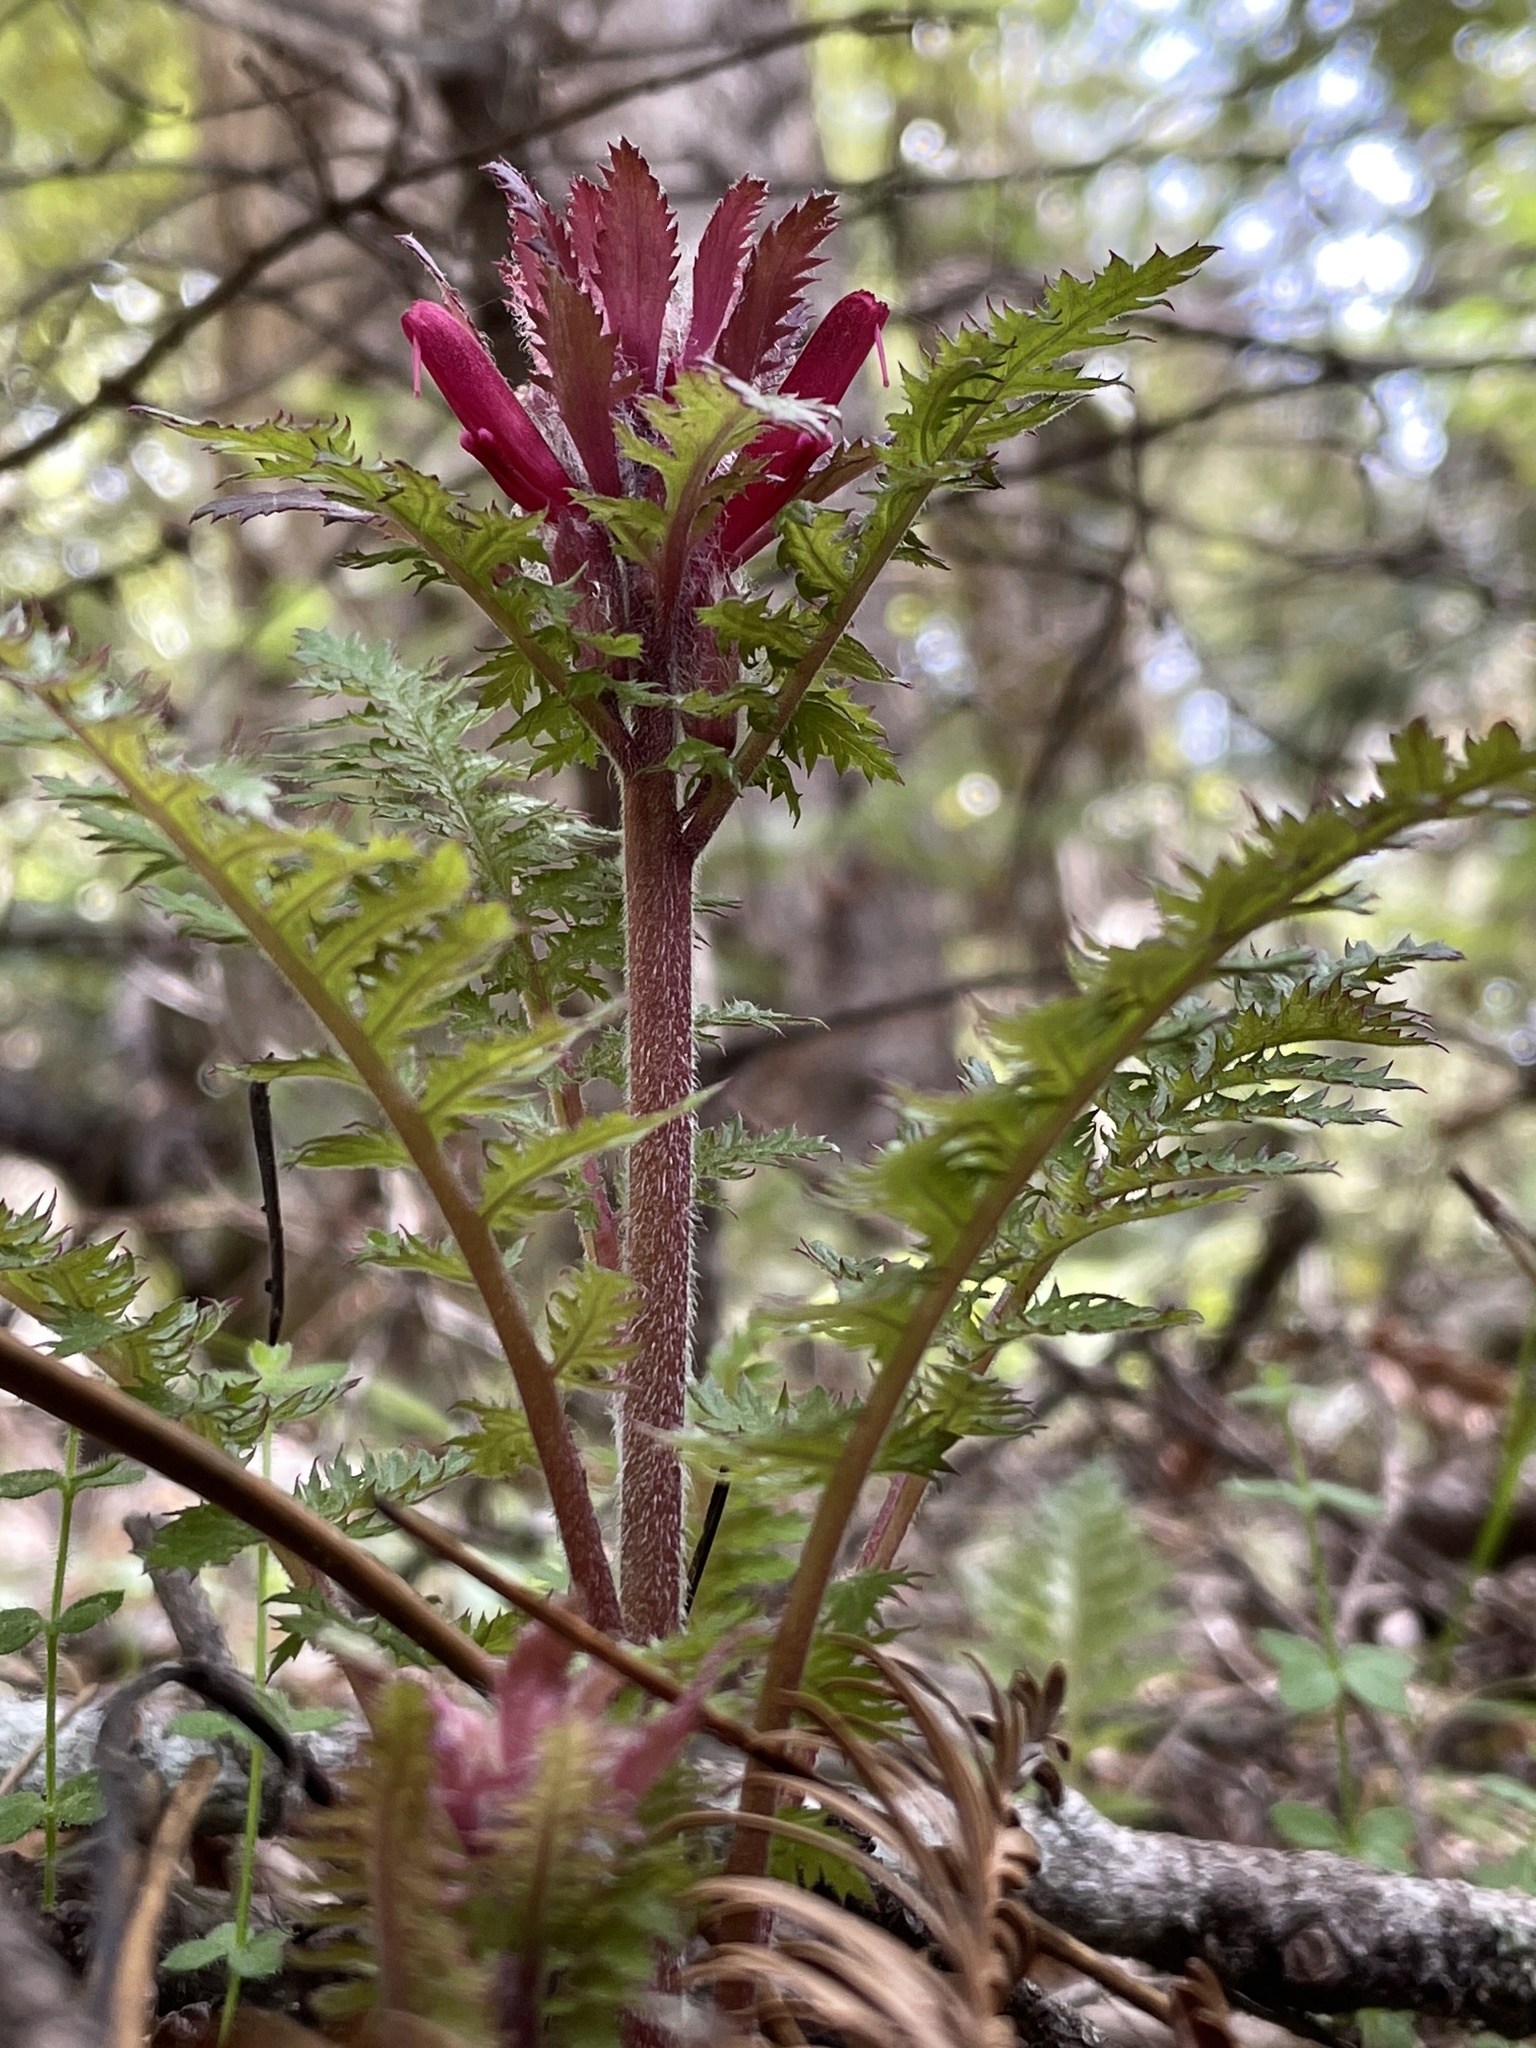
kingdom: Plantae
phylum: Tracheophyta
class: Magnoliopsida
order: Lamiales
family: Orobanchaceae
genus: Pedicularis
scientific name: Pedicularis densiflora
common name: Indian warrior
